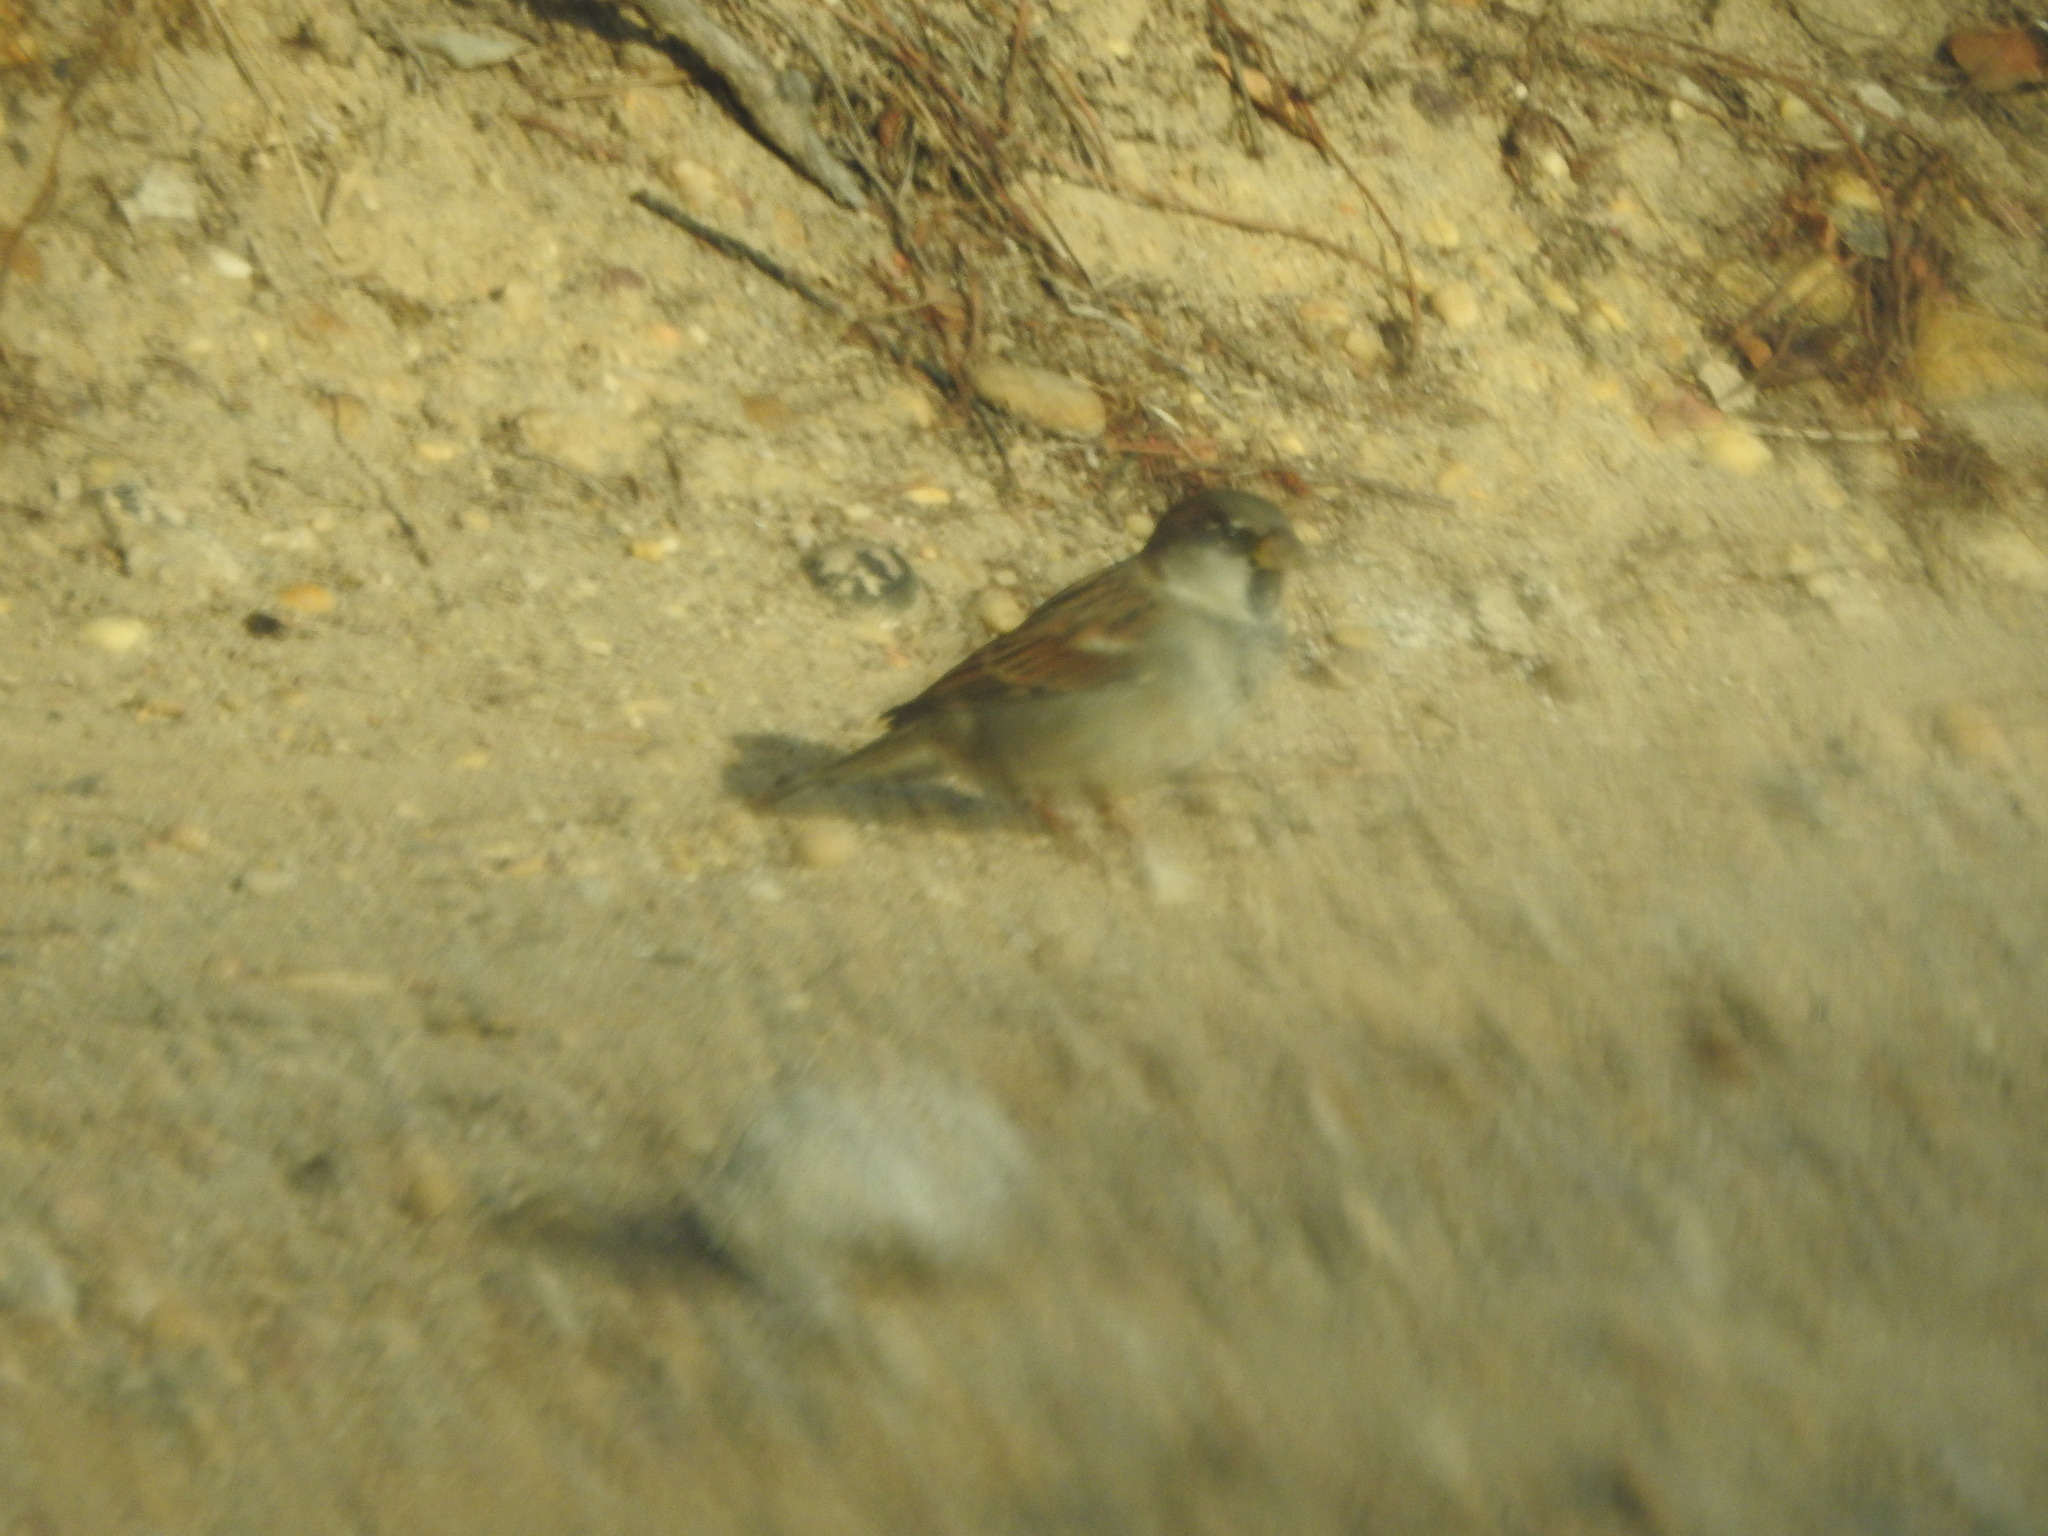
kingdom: Animalia
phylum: Chordata
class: Aves
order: Passeriformes
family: Passeridae
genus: Passer
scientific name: Passer domesticus
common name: House sparrow
